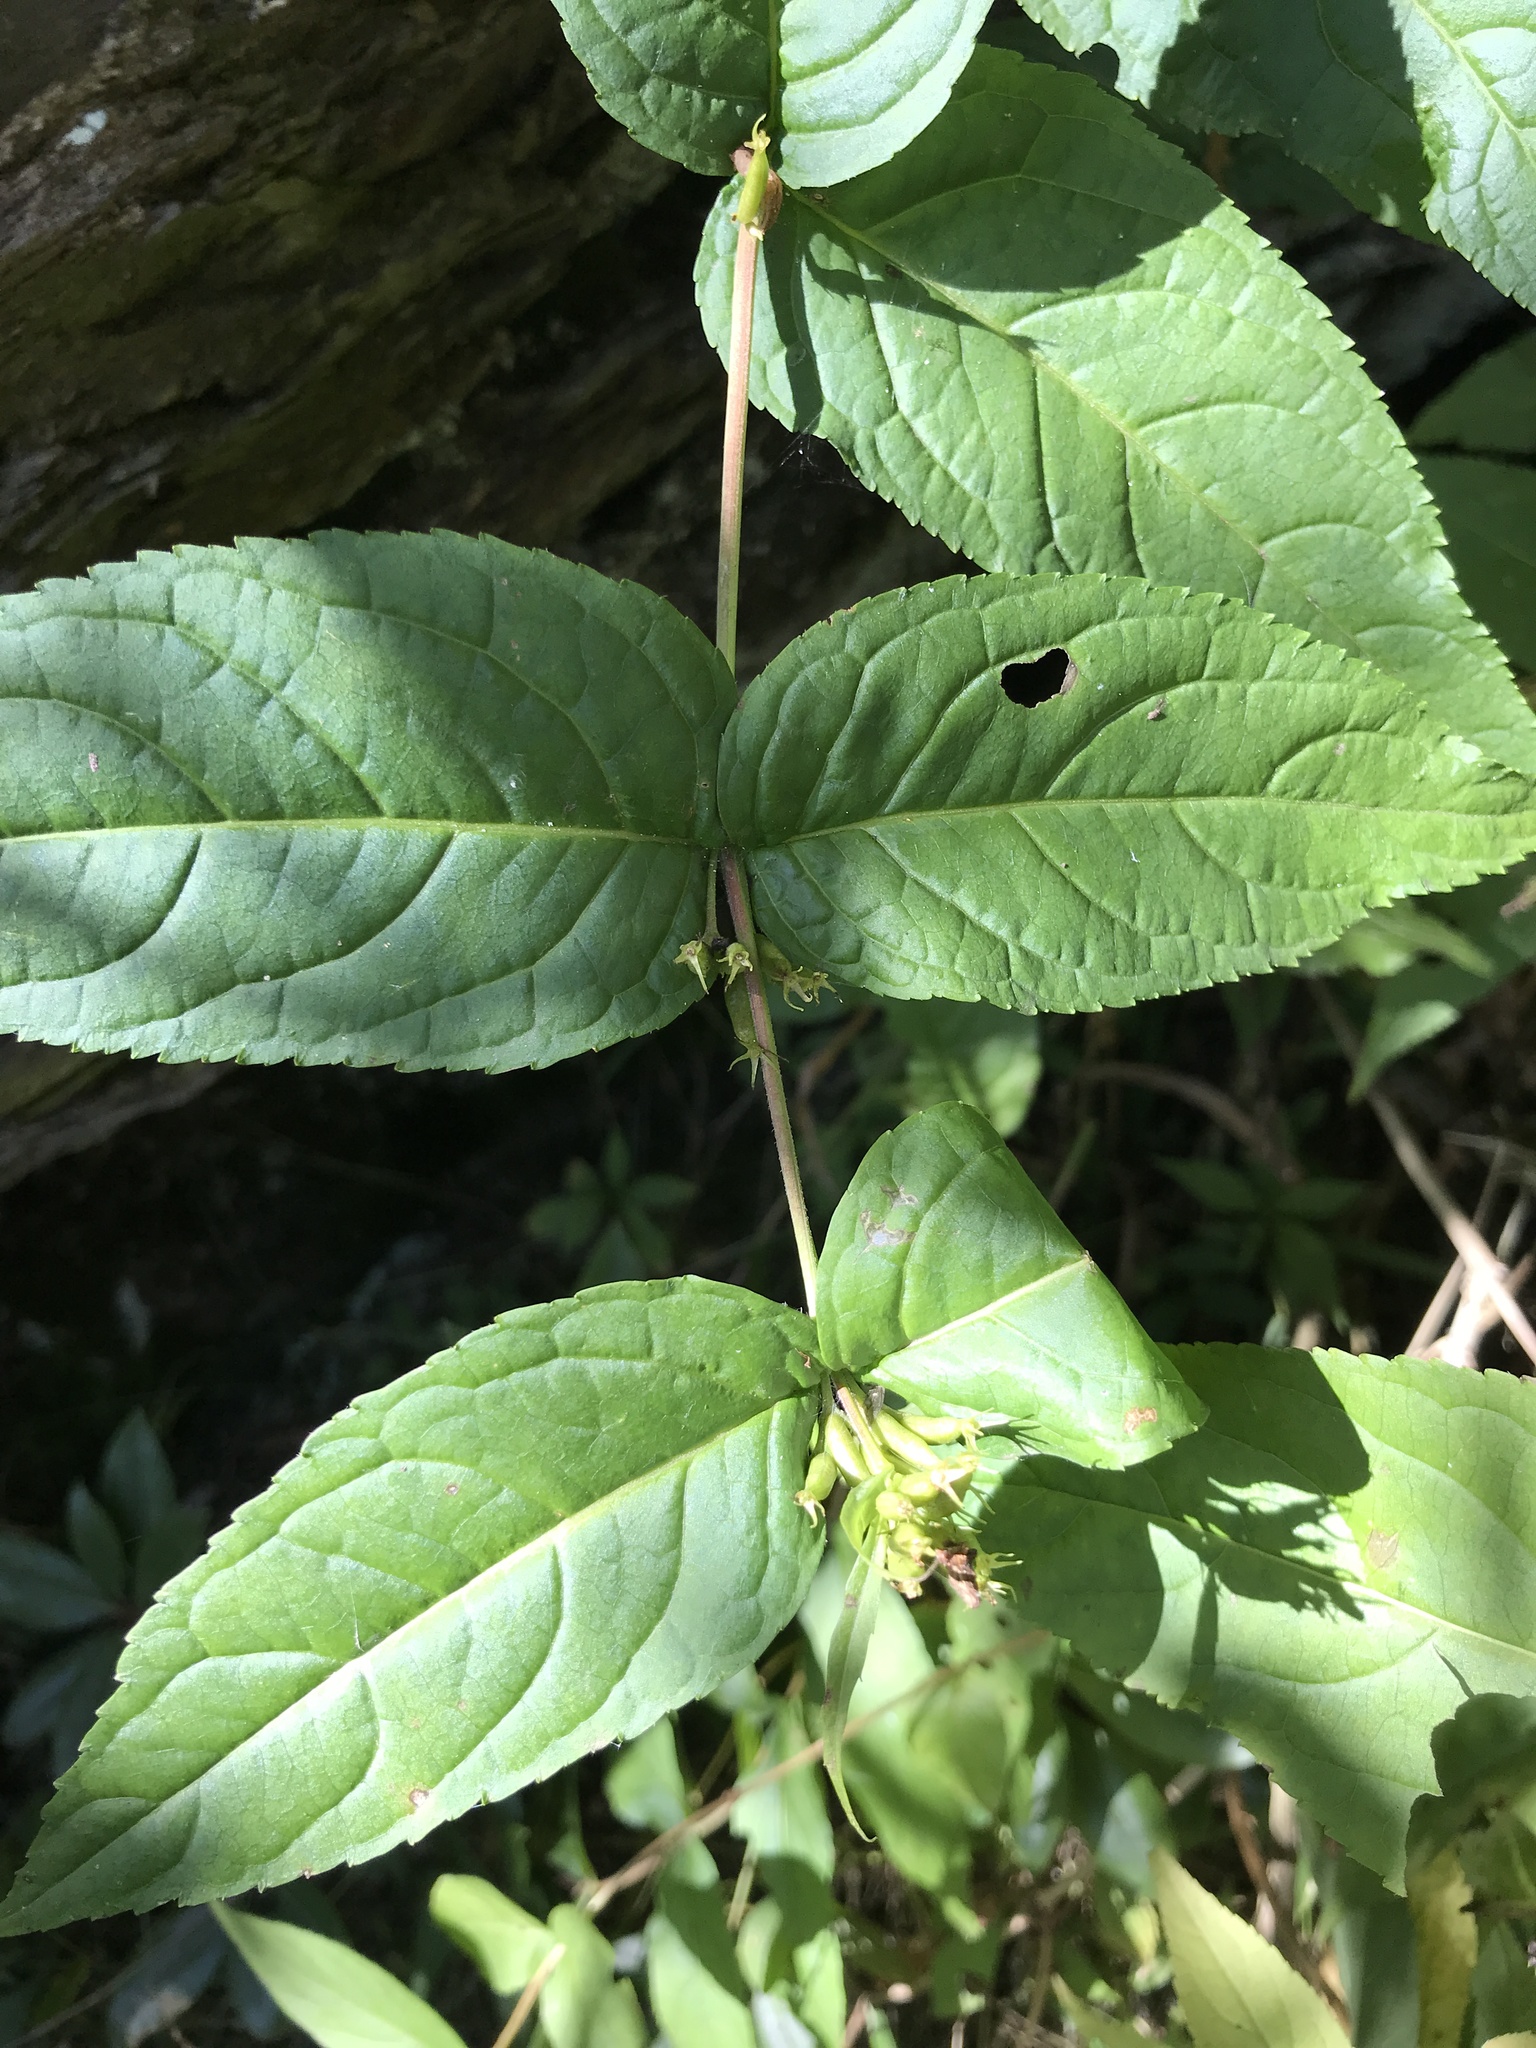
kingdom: Plantae
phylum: Tracheophyta
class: Magnoliopsida
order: Dipsacales
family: Caprifoliaceae
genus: Diervilla
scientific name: Diervilla sessilifolia
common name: Bush-honeysuckle
